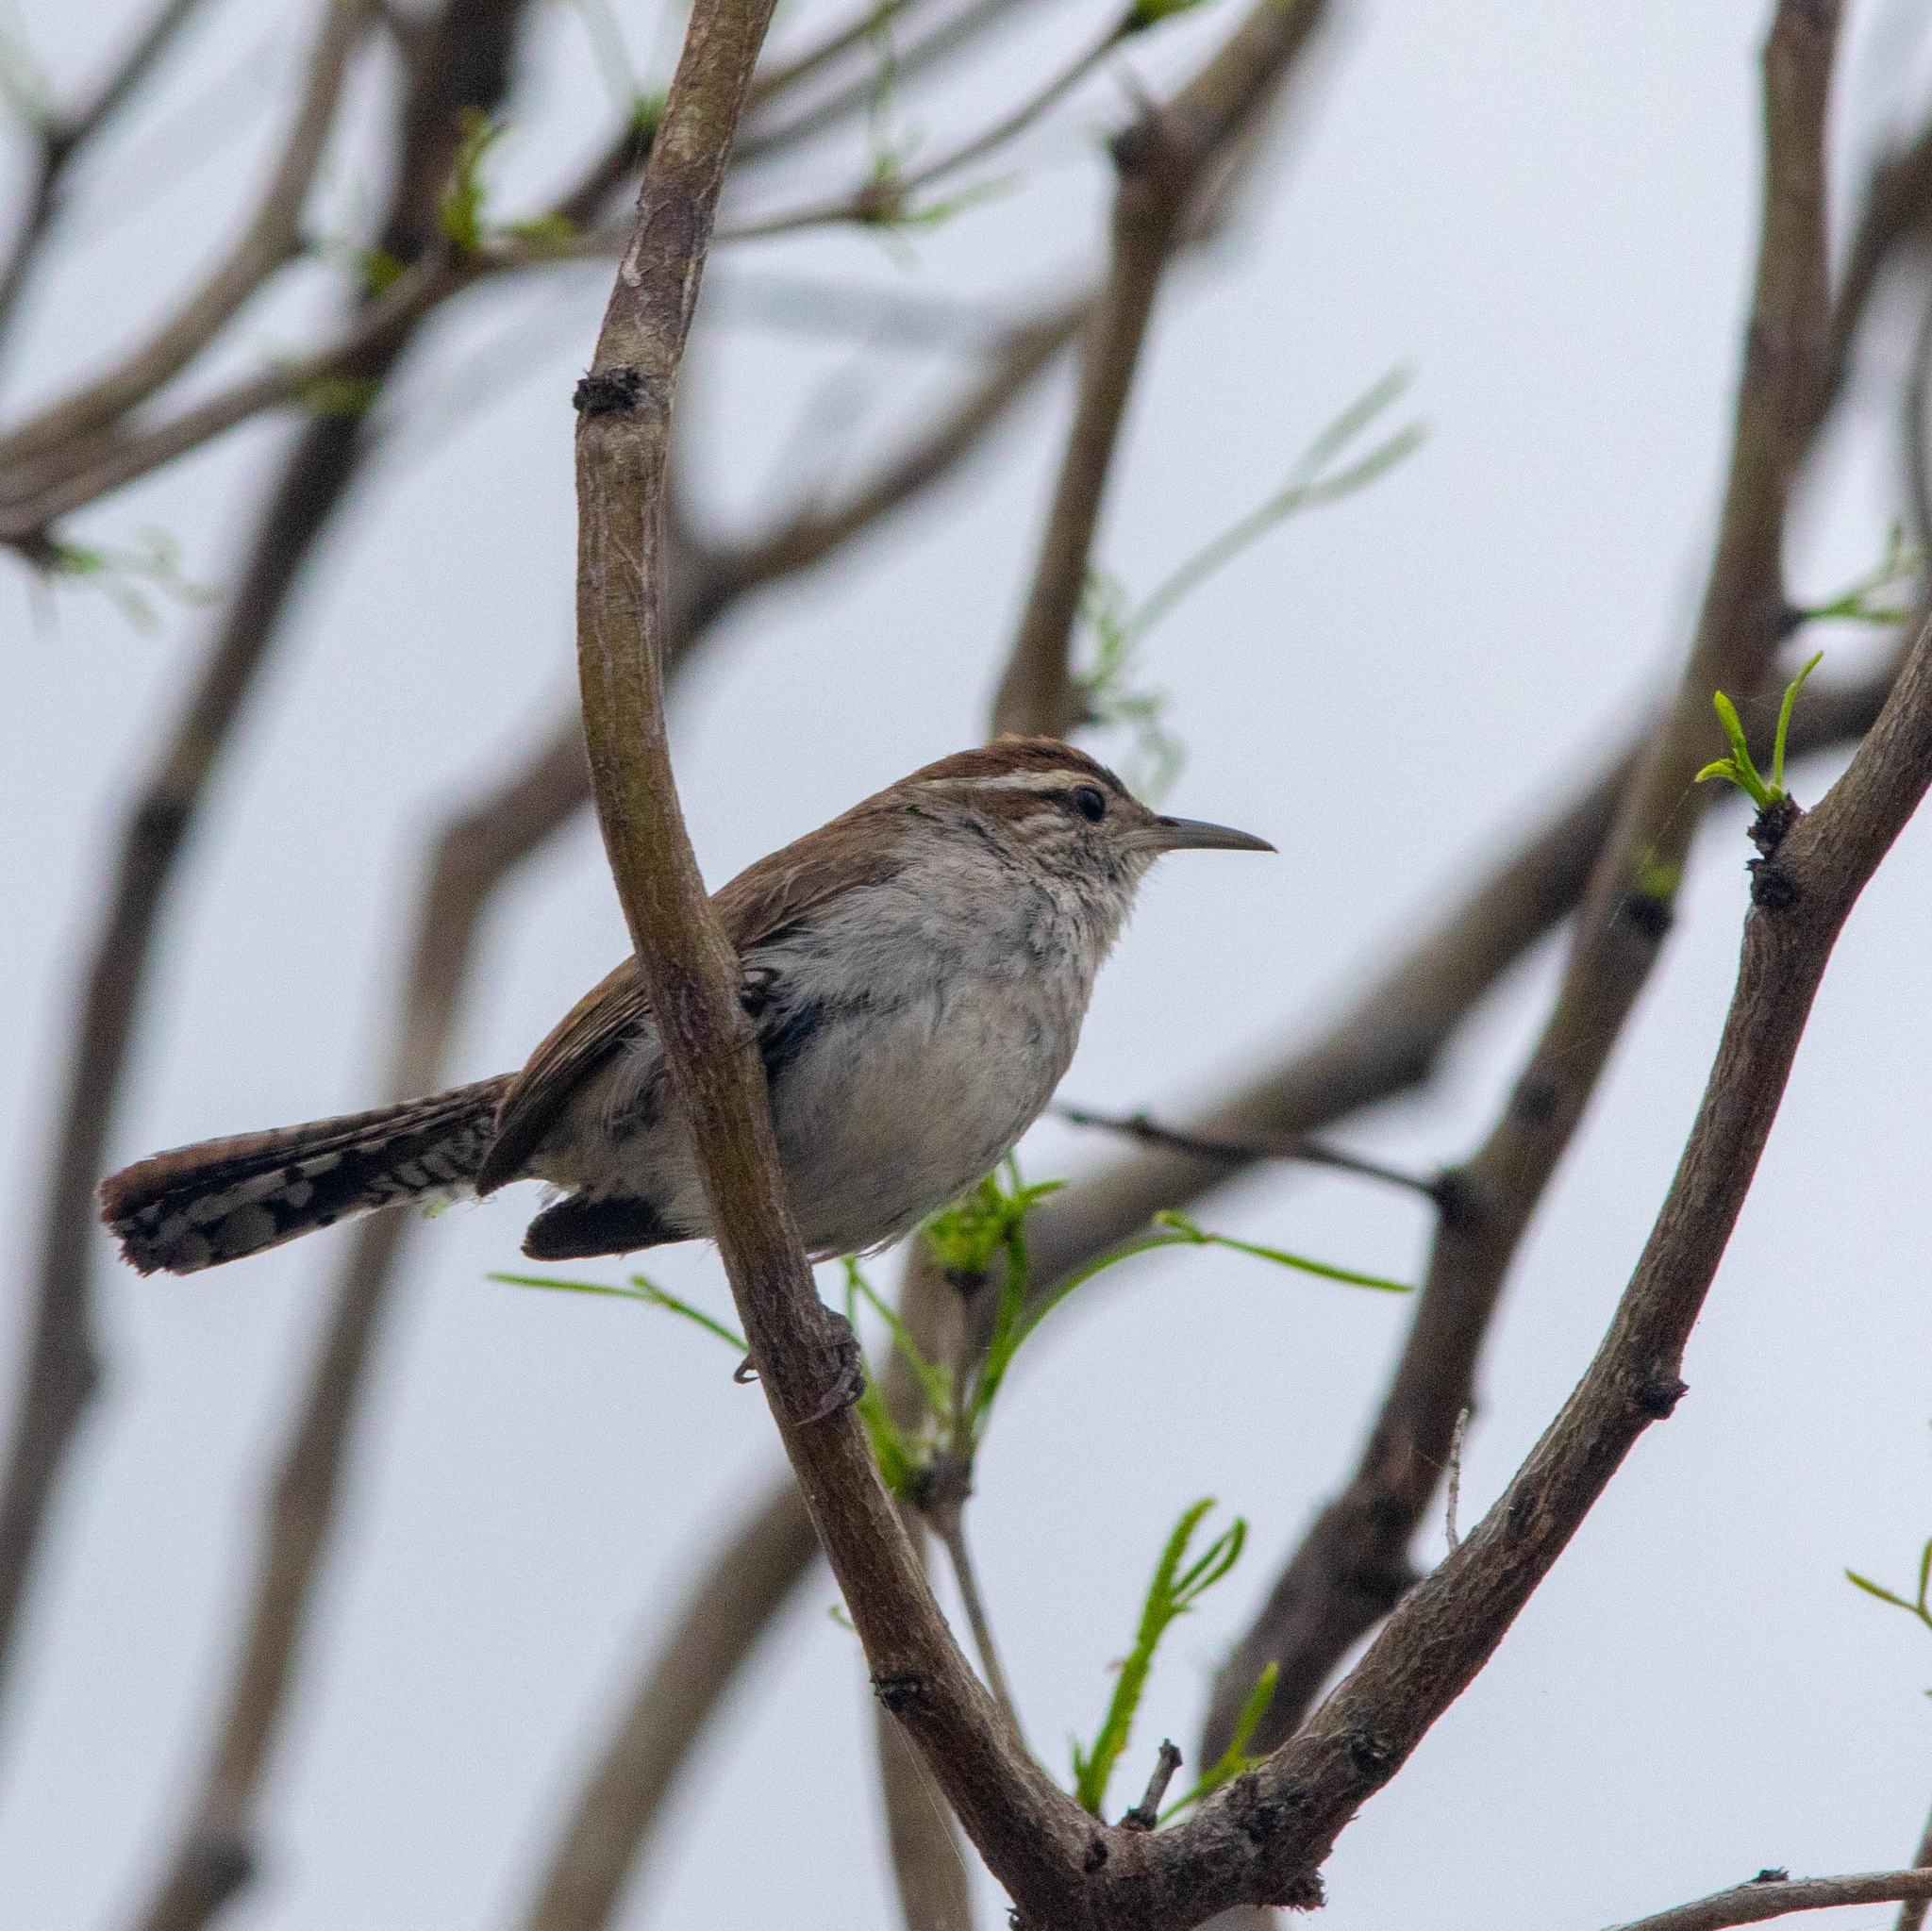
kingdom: Animalia
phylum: Chordata
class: Aves
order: Passeriformes
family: Troglodytidae
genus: Thryomanes
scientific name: Thryomanes bewickii
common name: Bewick's wren
